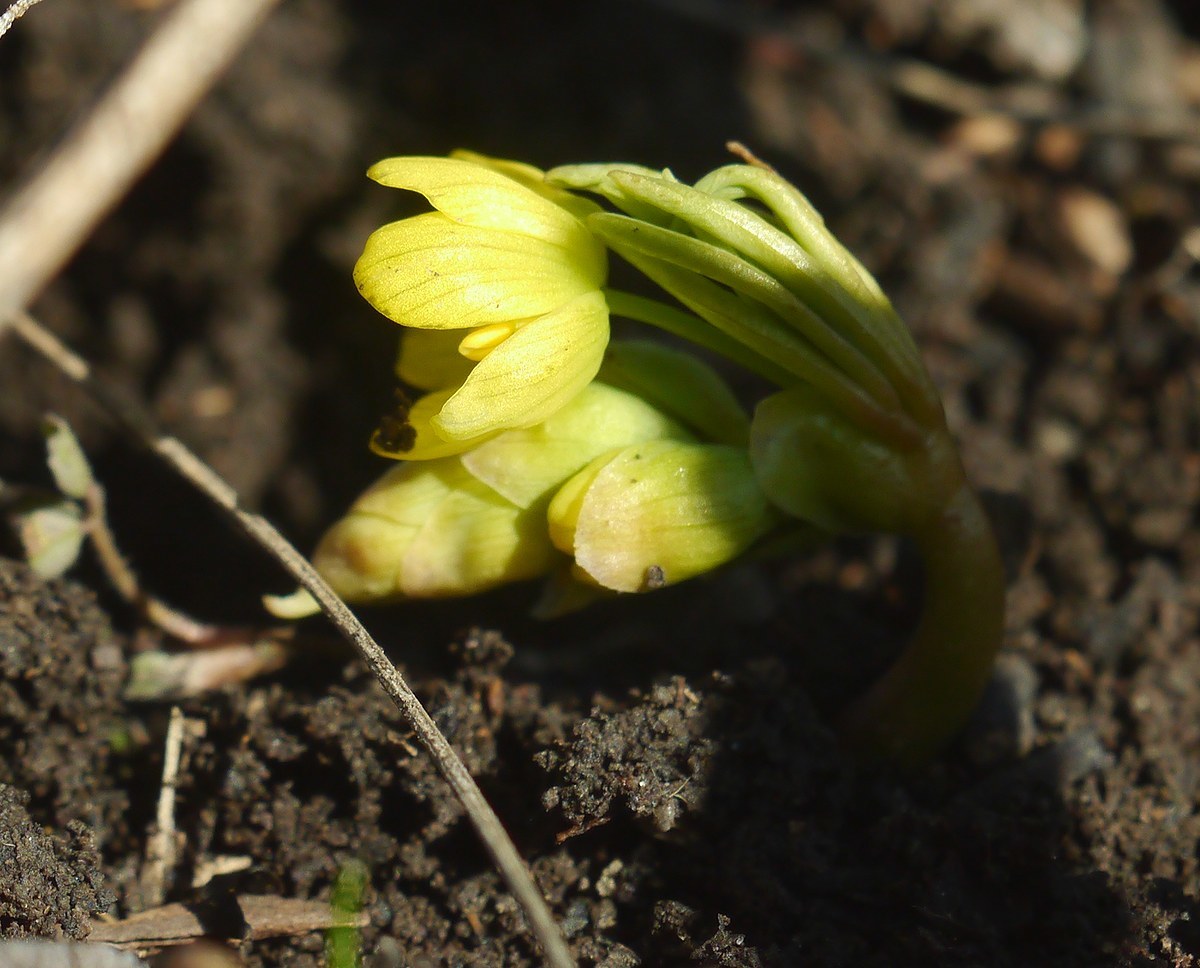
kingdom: Plantae
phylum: Tracheophyta
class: Magnoliopsida
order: Ranunculales
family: Berberidaceae
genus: Gymnospermium
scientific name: Gymnospermium odessanum
